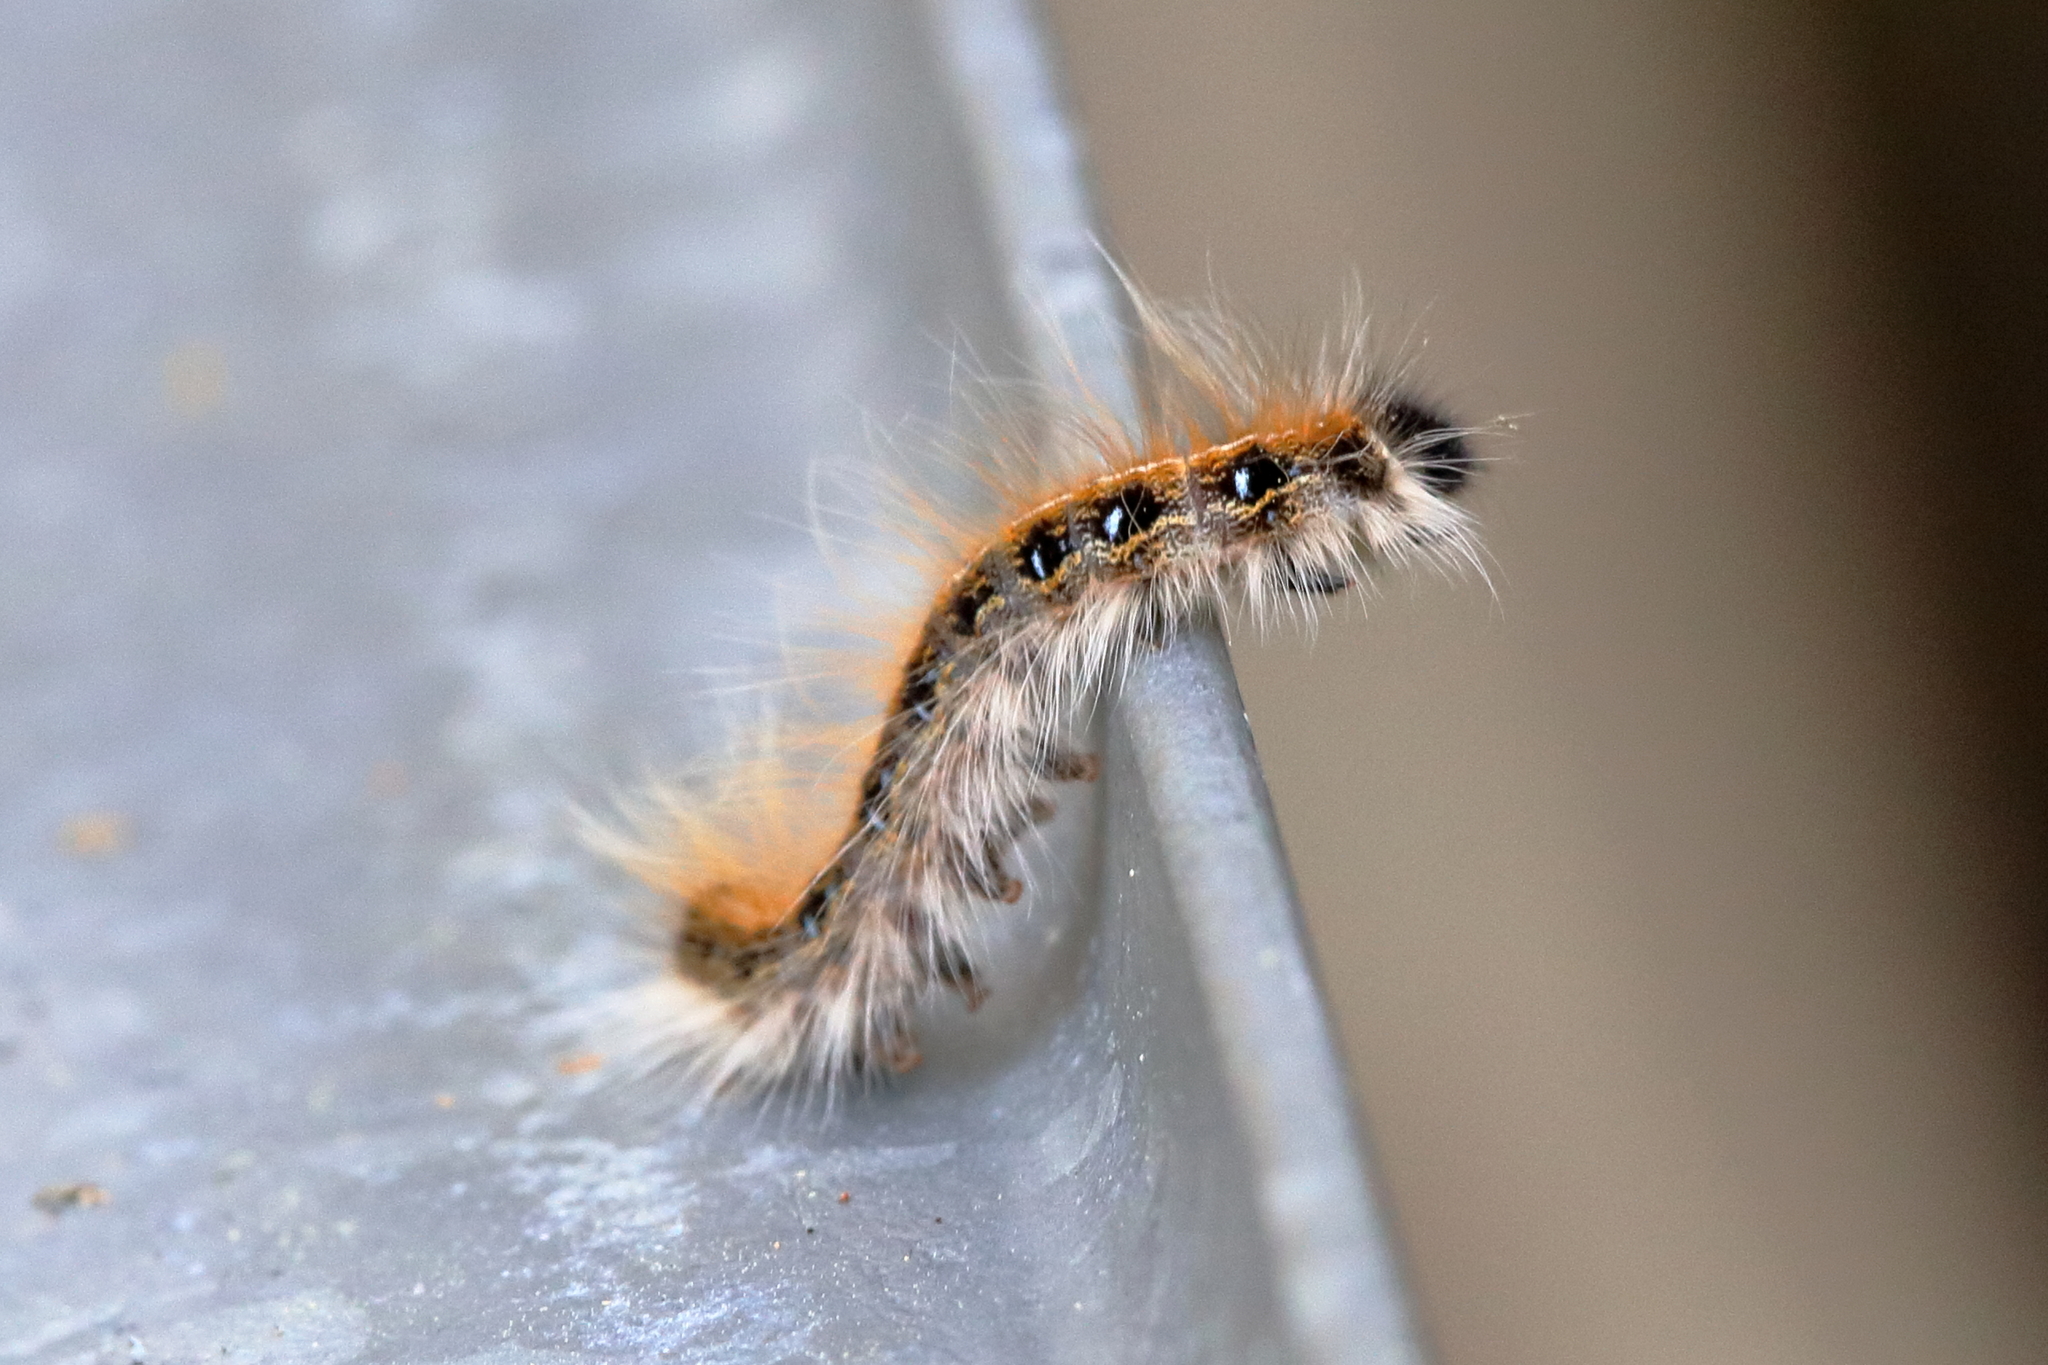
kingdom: Animalia
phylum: Arthropoda
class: Insecta
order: Lepidoptera
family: Lasiocampidae
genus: Malacosoma
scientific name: Malacosoma americana
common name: Eastern tent caterpillar moth
